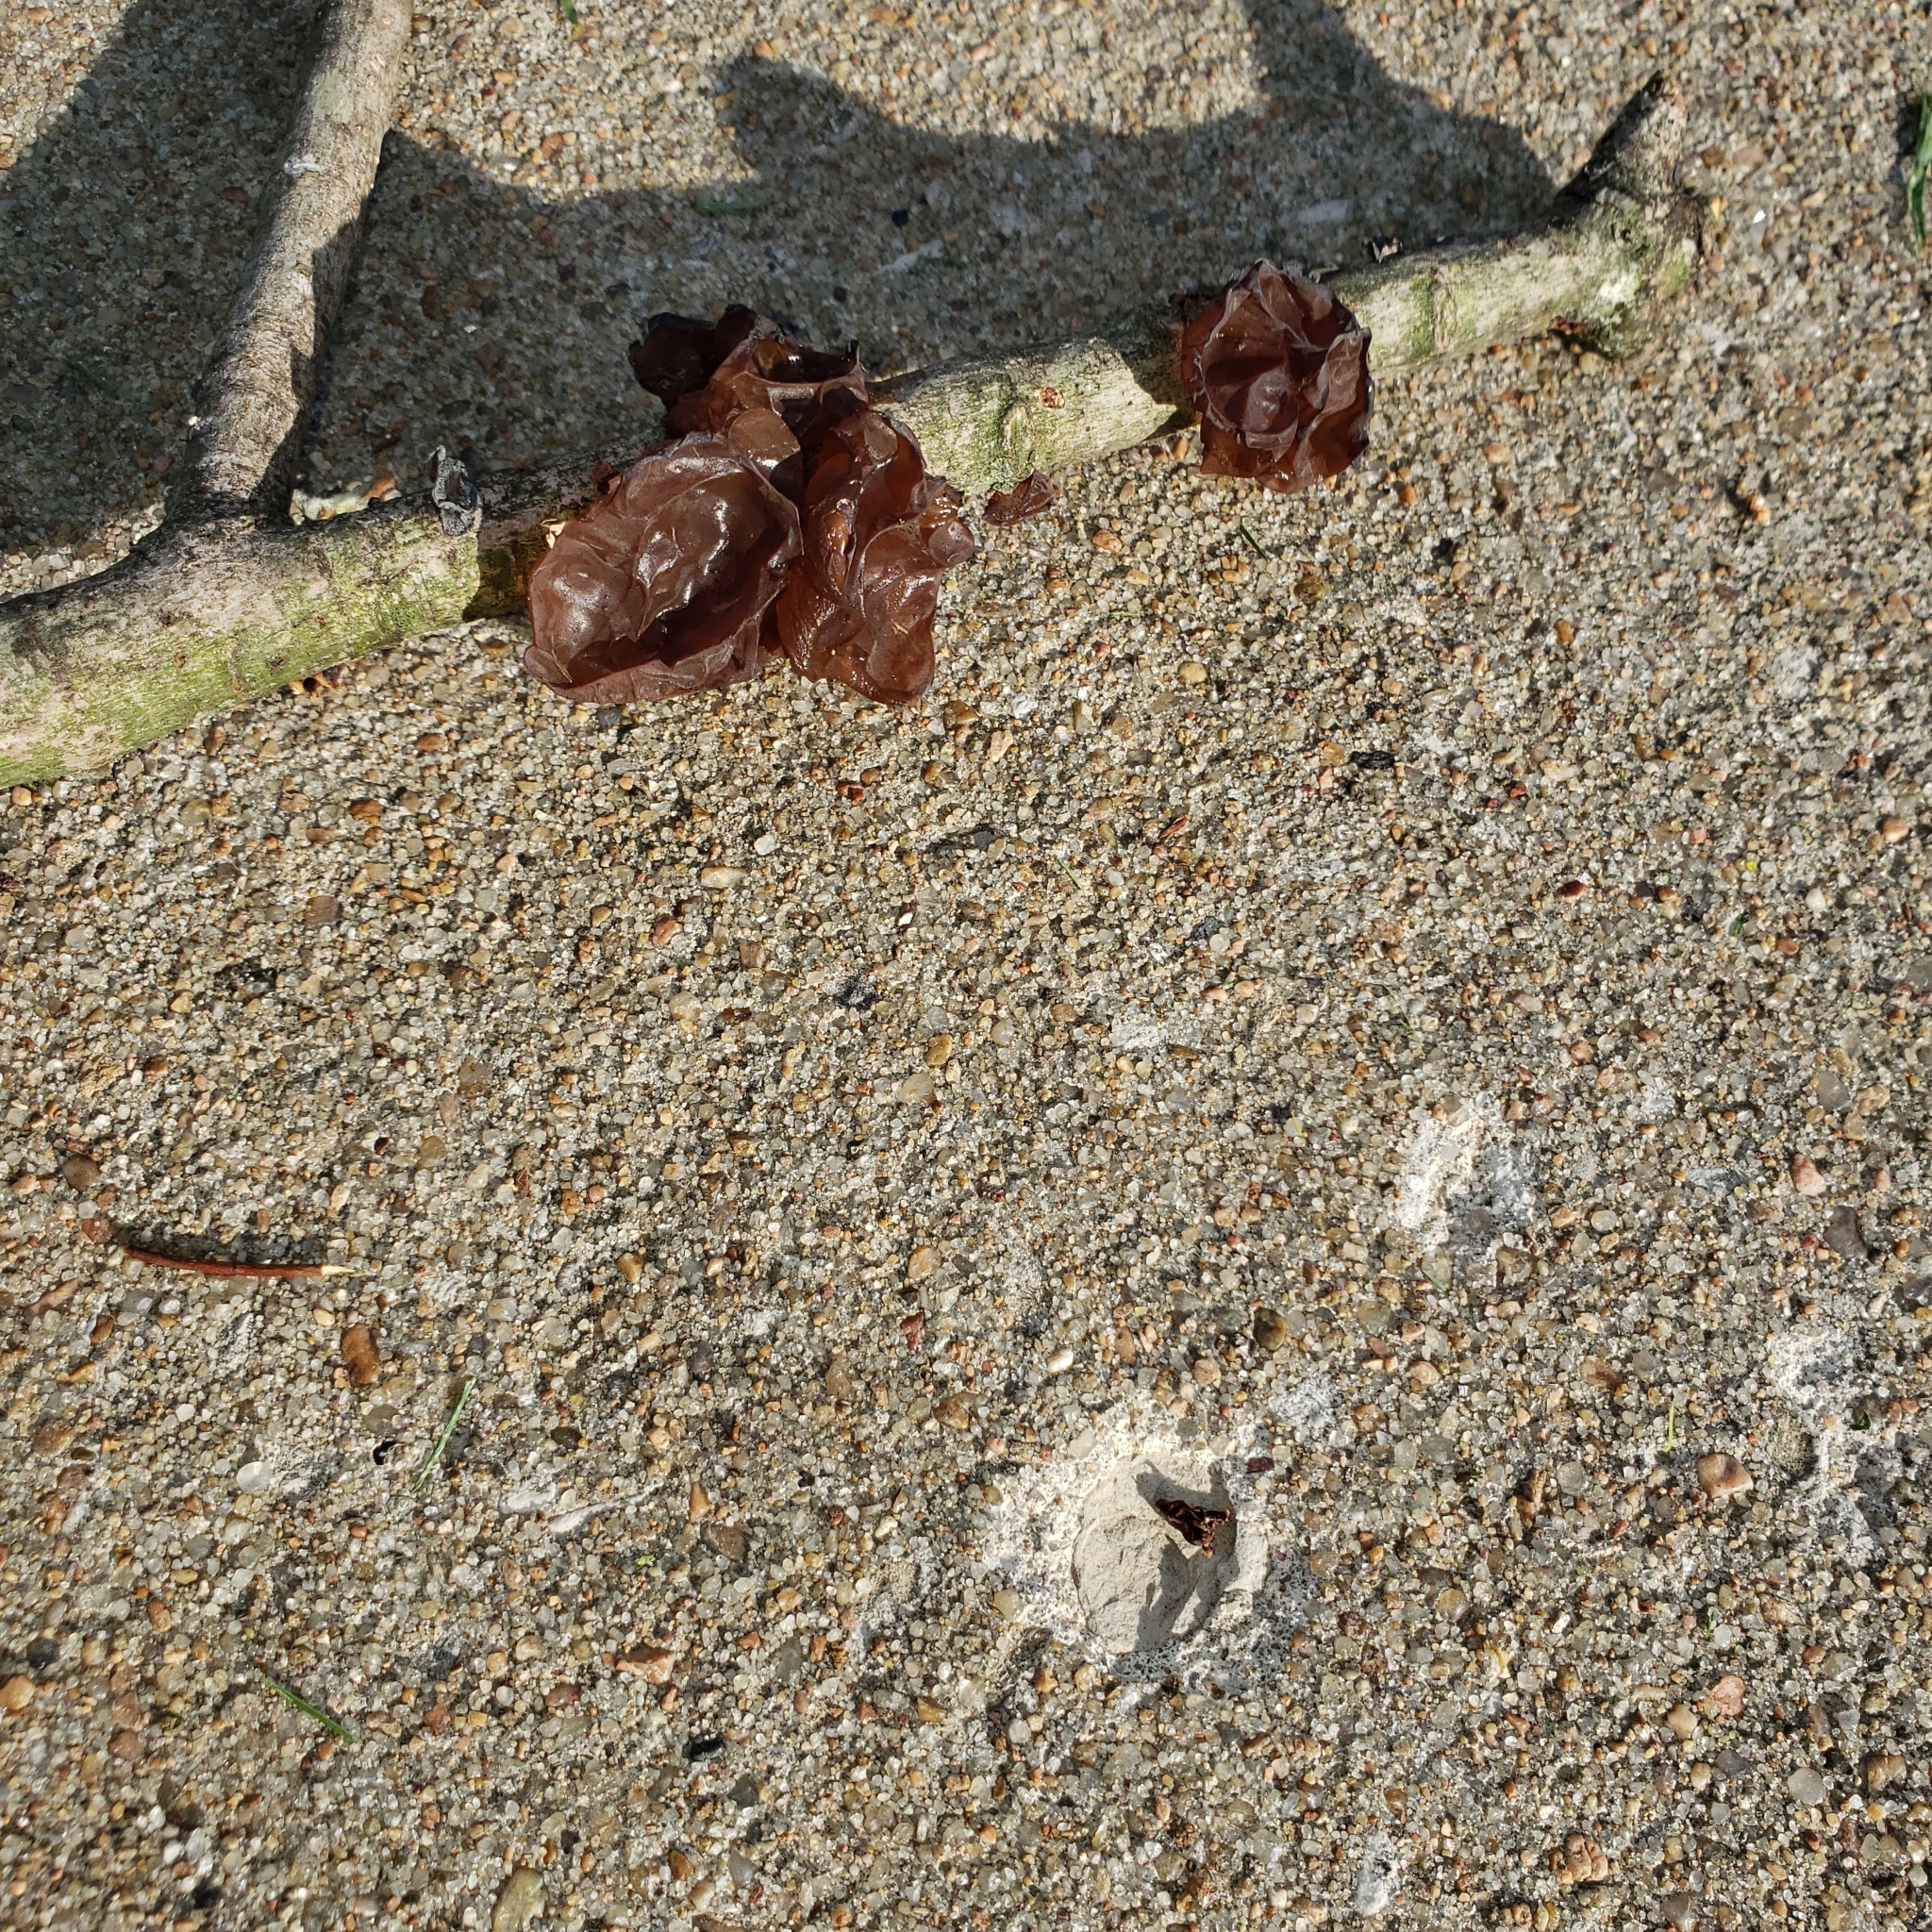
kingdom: Fungi
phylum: Basidiomycota
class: Tremellomycetes
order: Tremellales
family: Tremellaceae
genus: Phaeotremella
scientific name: Phaeotremella foliacea
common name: Leafy brain
